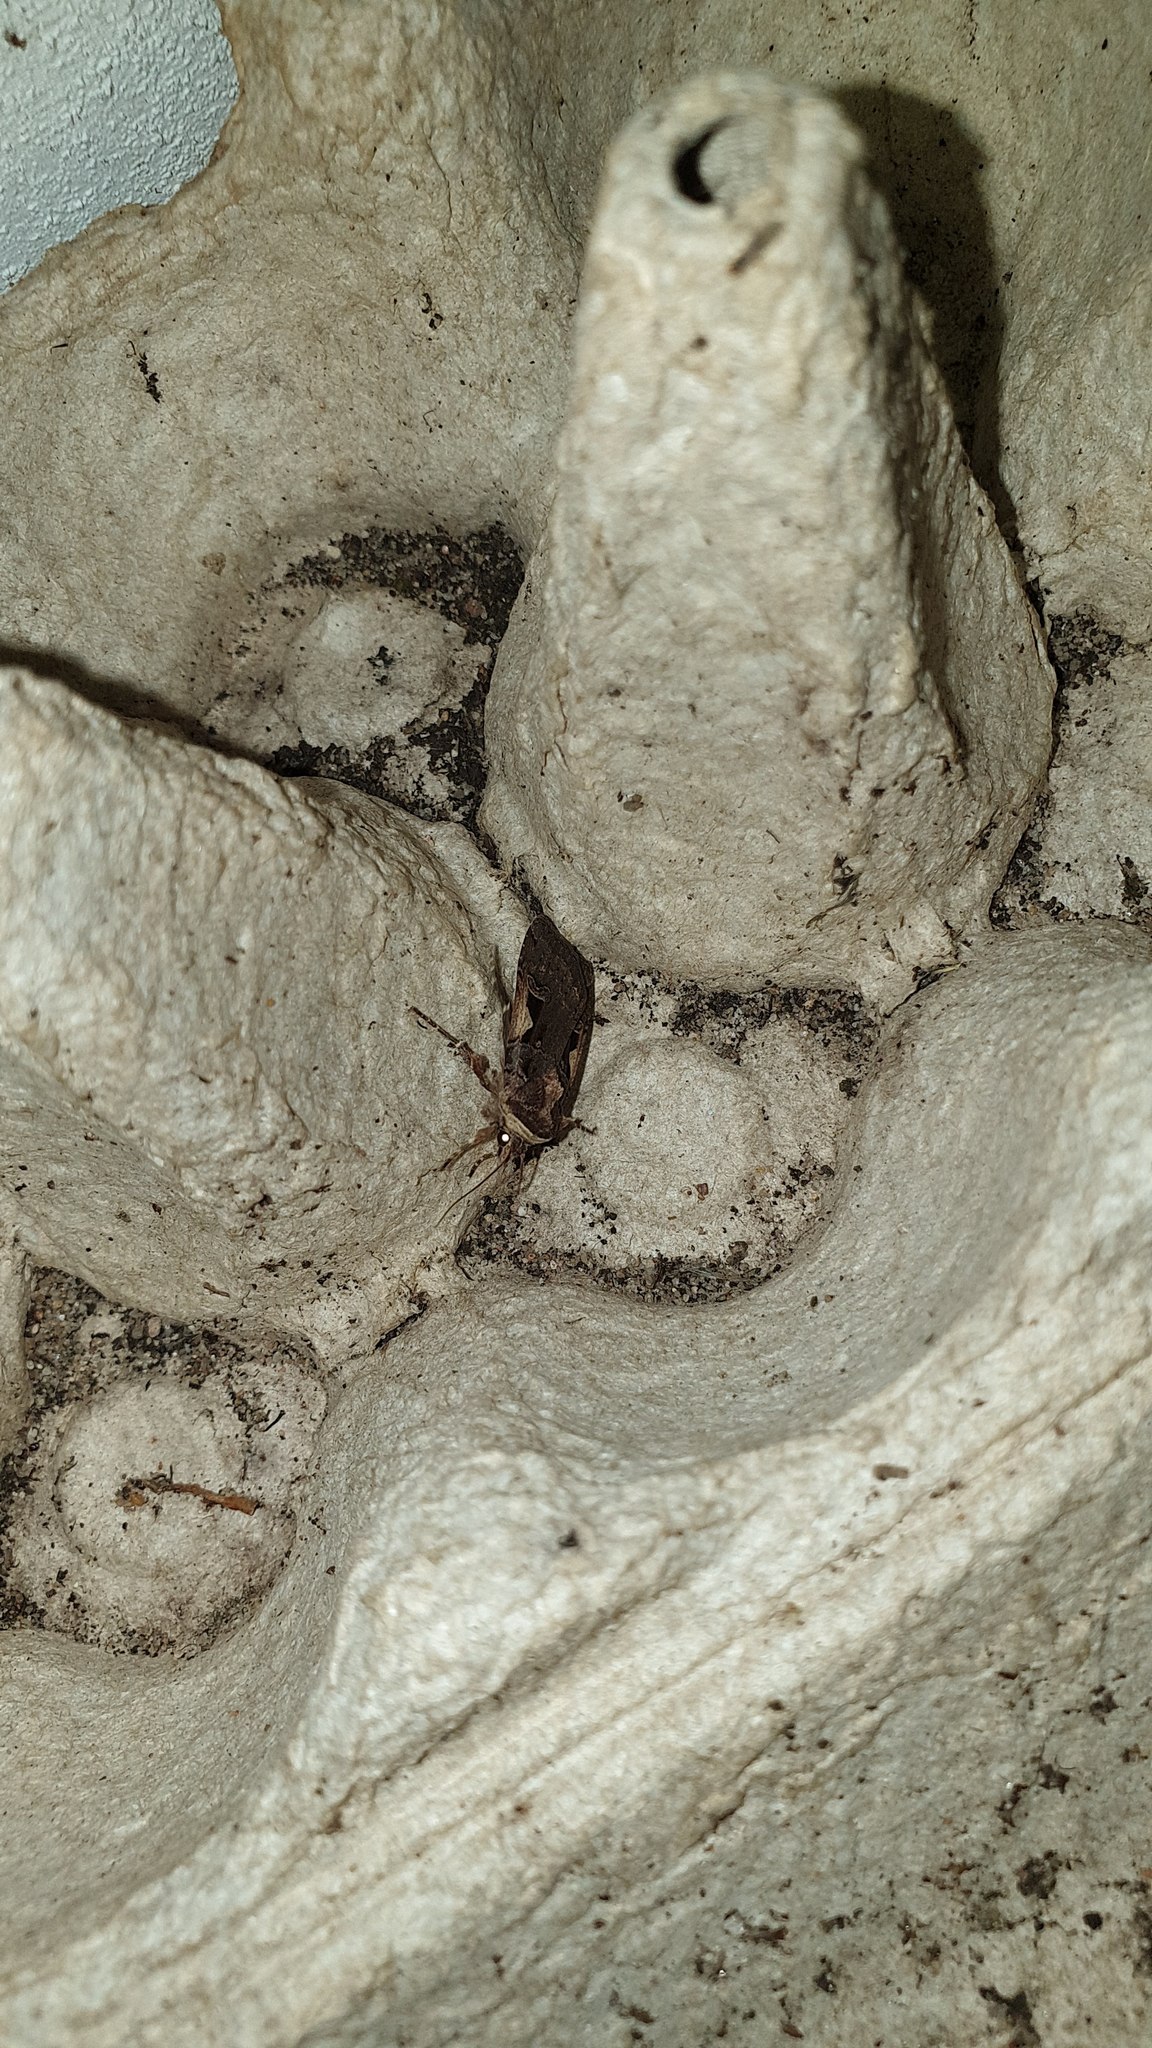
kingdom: Animalia
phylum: Arthropoda
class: Insecta
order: Lepidoptera
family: Noctuidae
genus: Xestia
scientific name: Xestia c-nigrum
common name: Setaceous hebrew character
